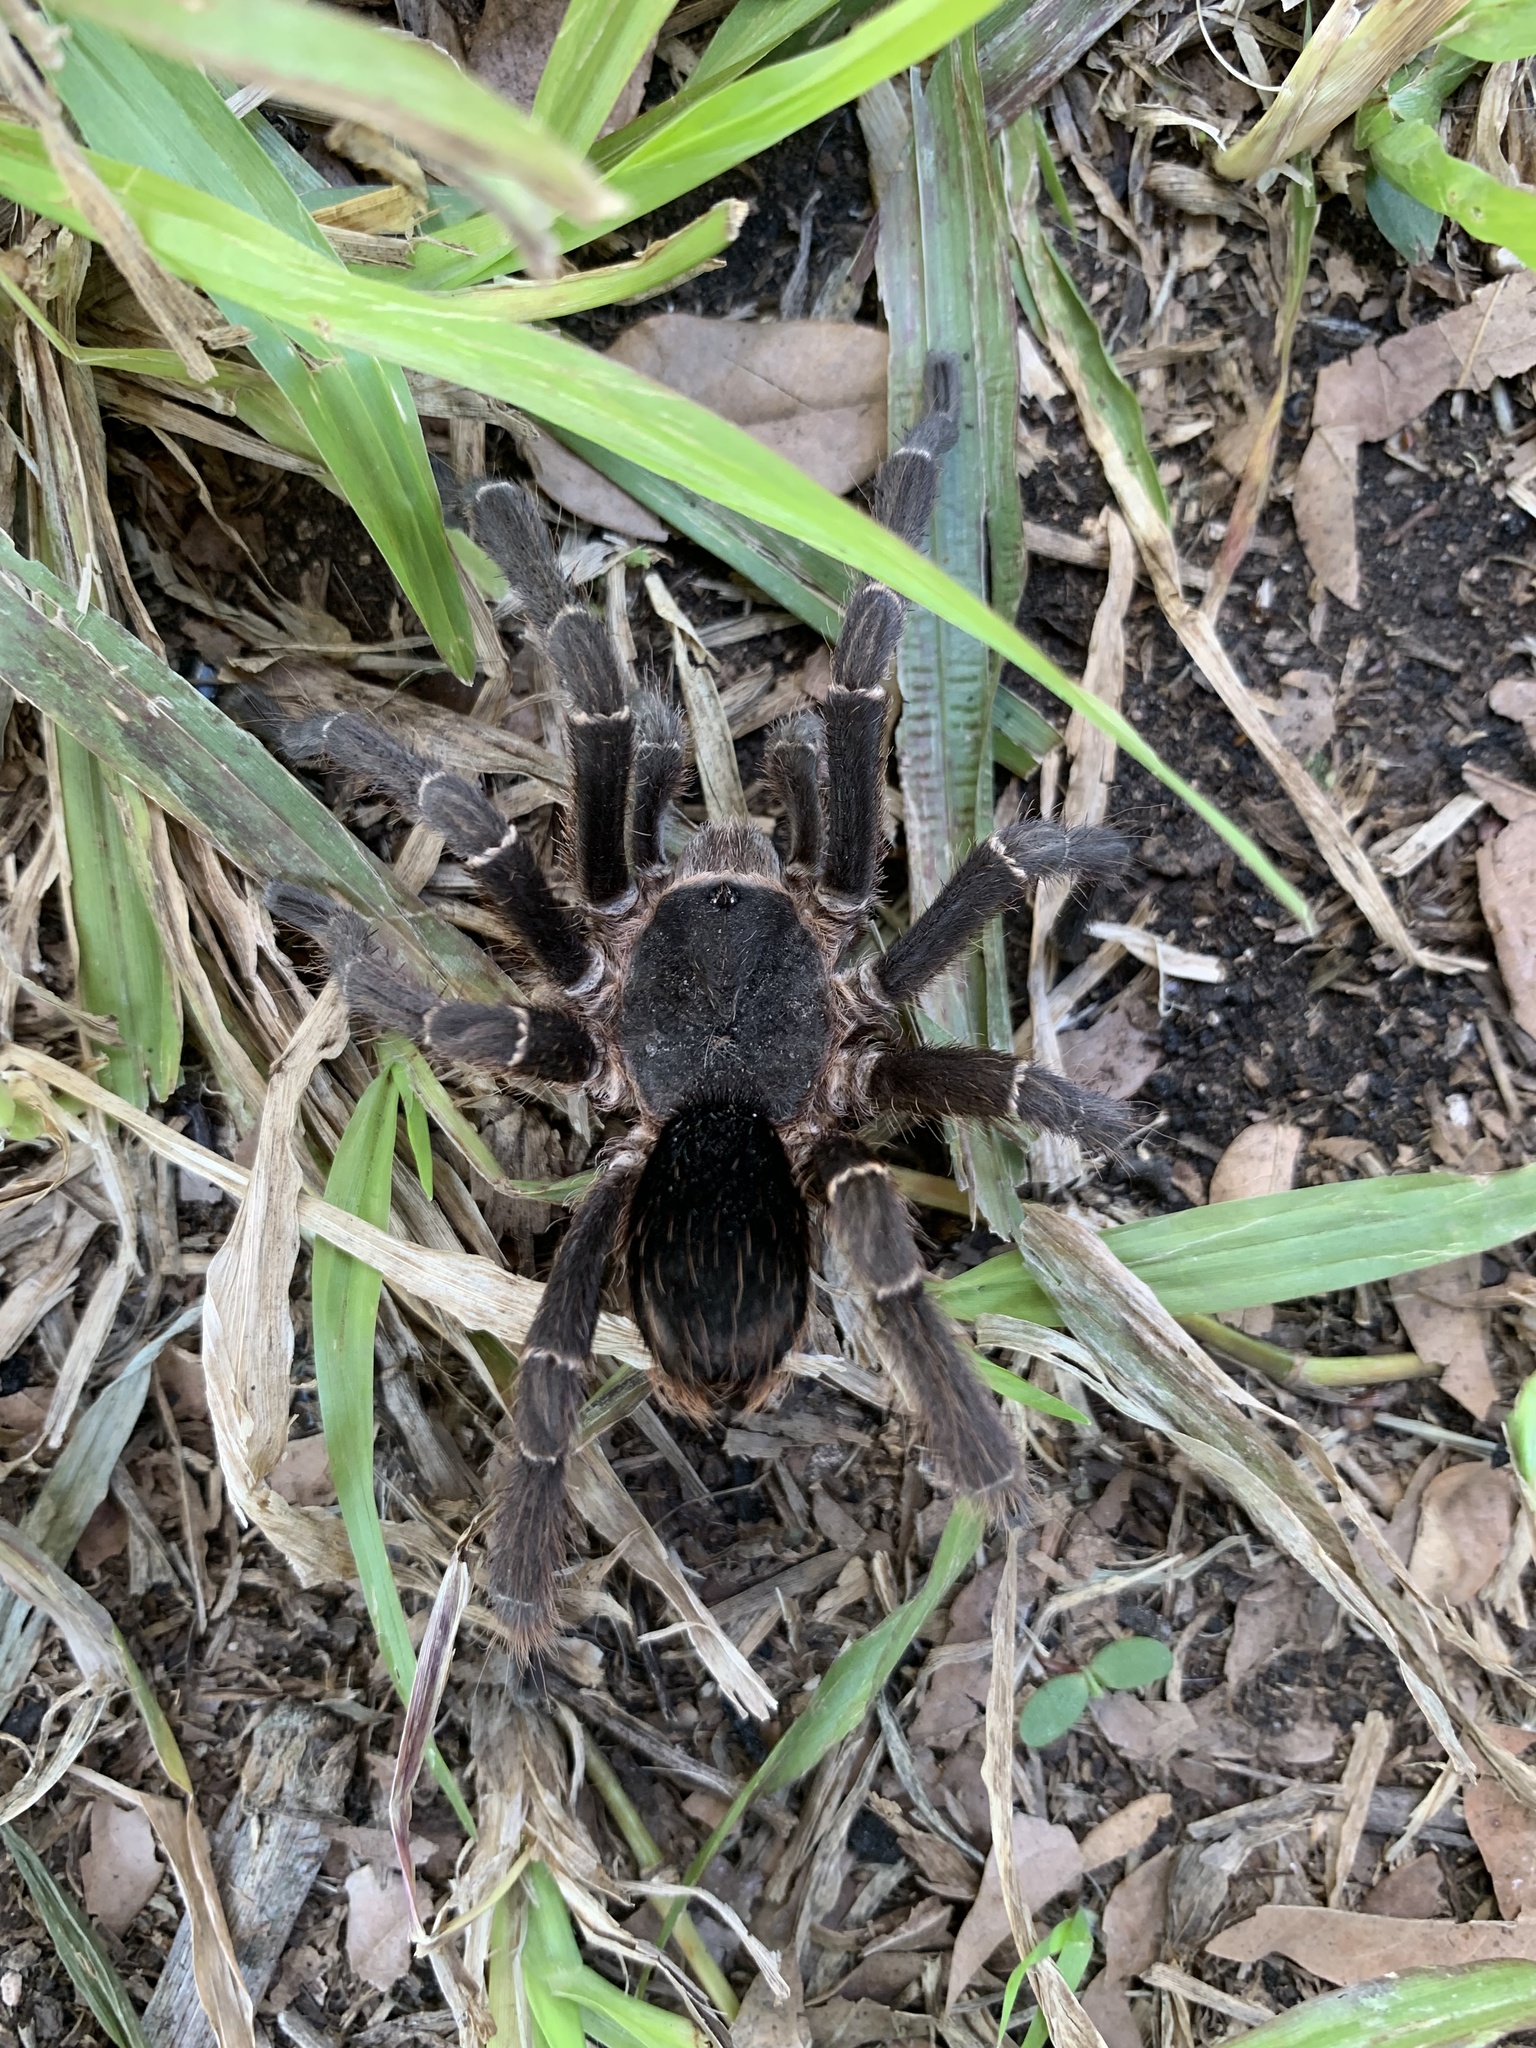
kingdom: Animalia
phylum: Arthropoda
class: Arachnida
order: Araneae
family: Theraphosidae
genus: Eupalaestrus
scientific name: Eupalaestrus weijenberghi
